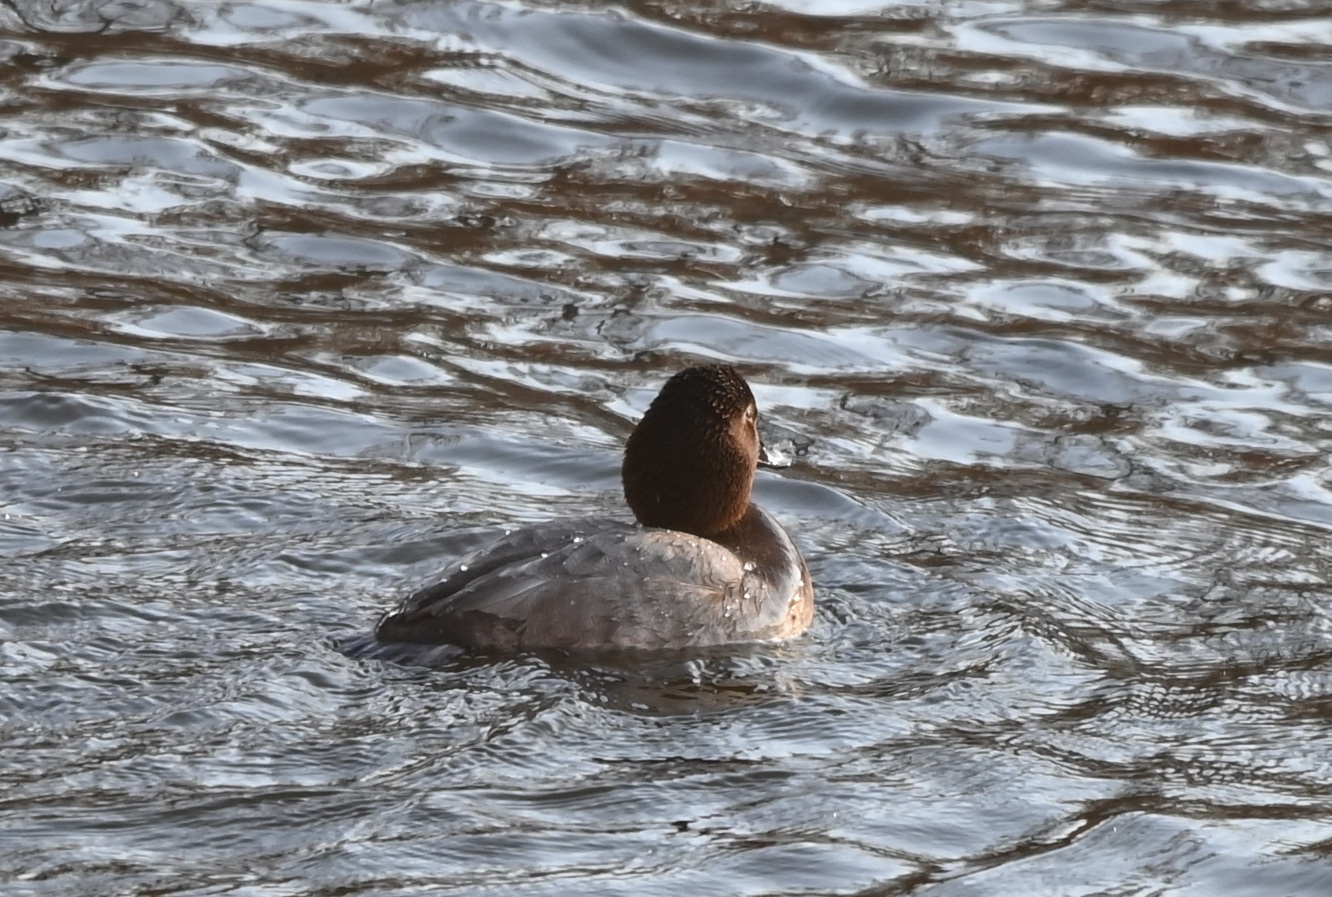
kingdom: Animalia
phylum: Chordata
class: Aves
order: Anseriformes
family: Anatidae
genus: Aythya
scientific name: Aythya ferina
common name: Common pochard
